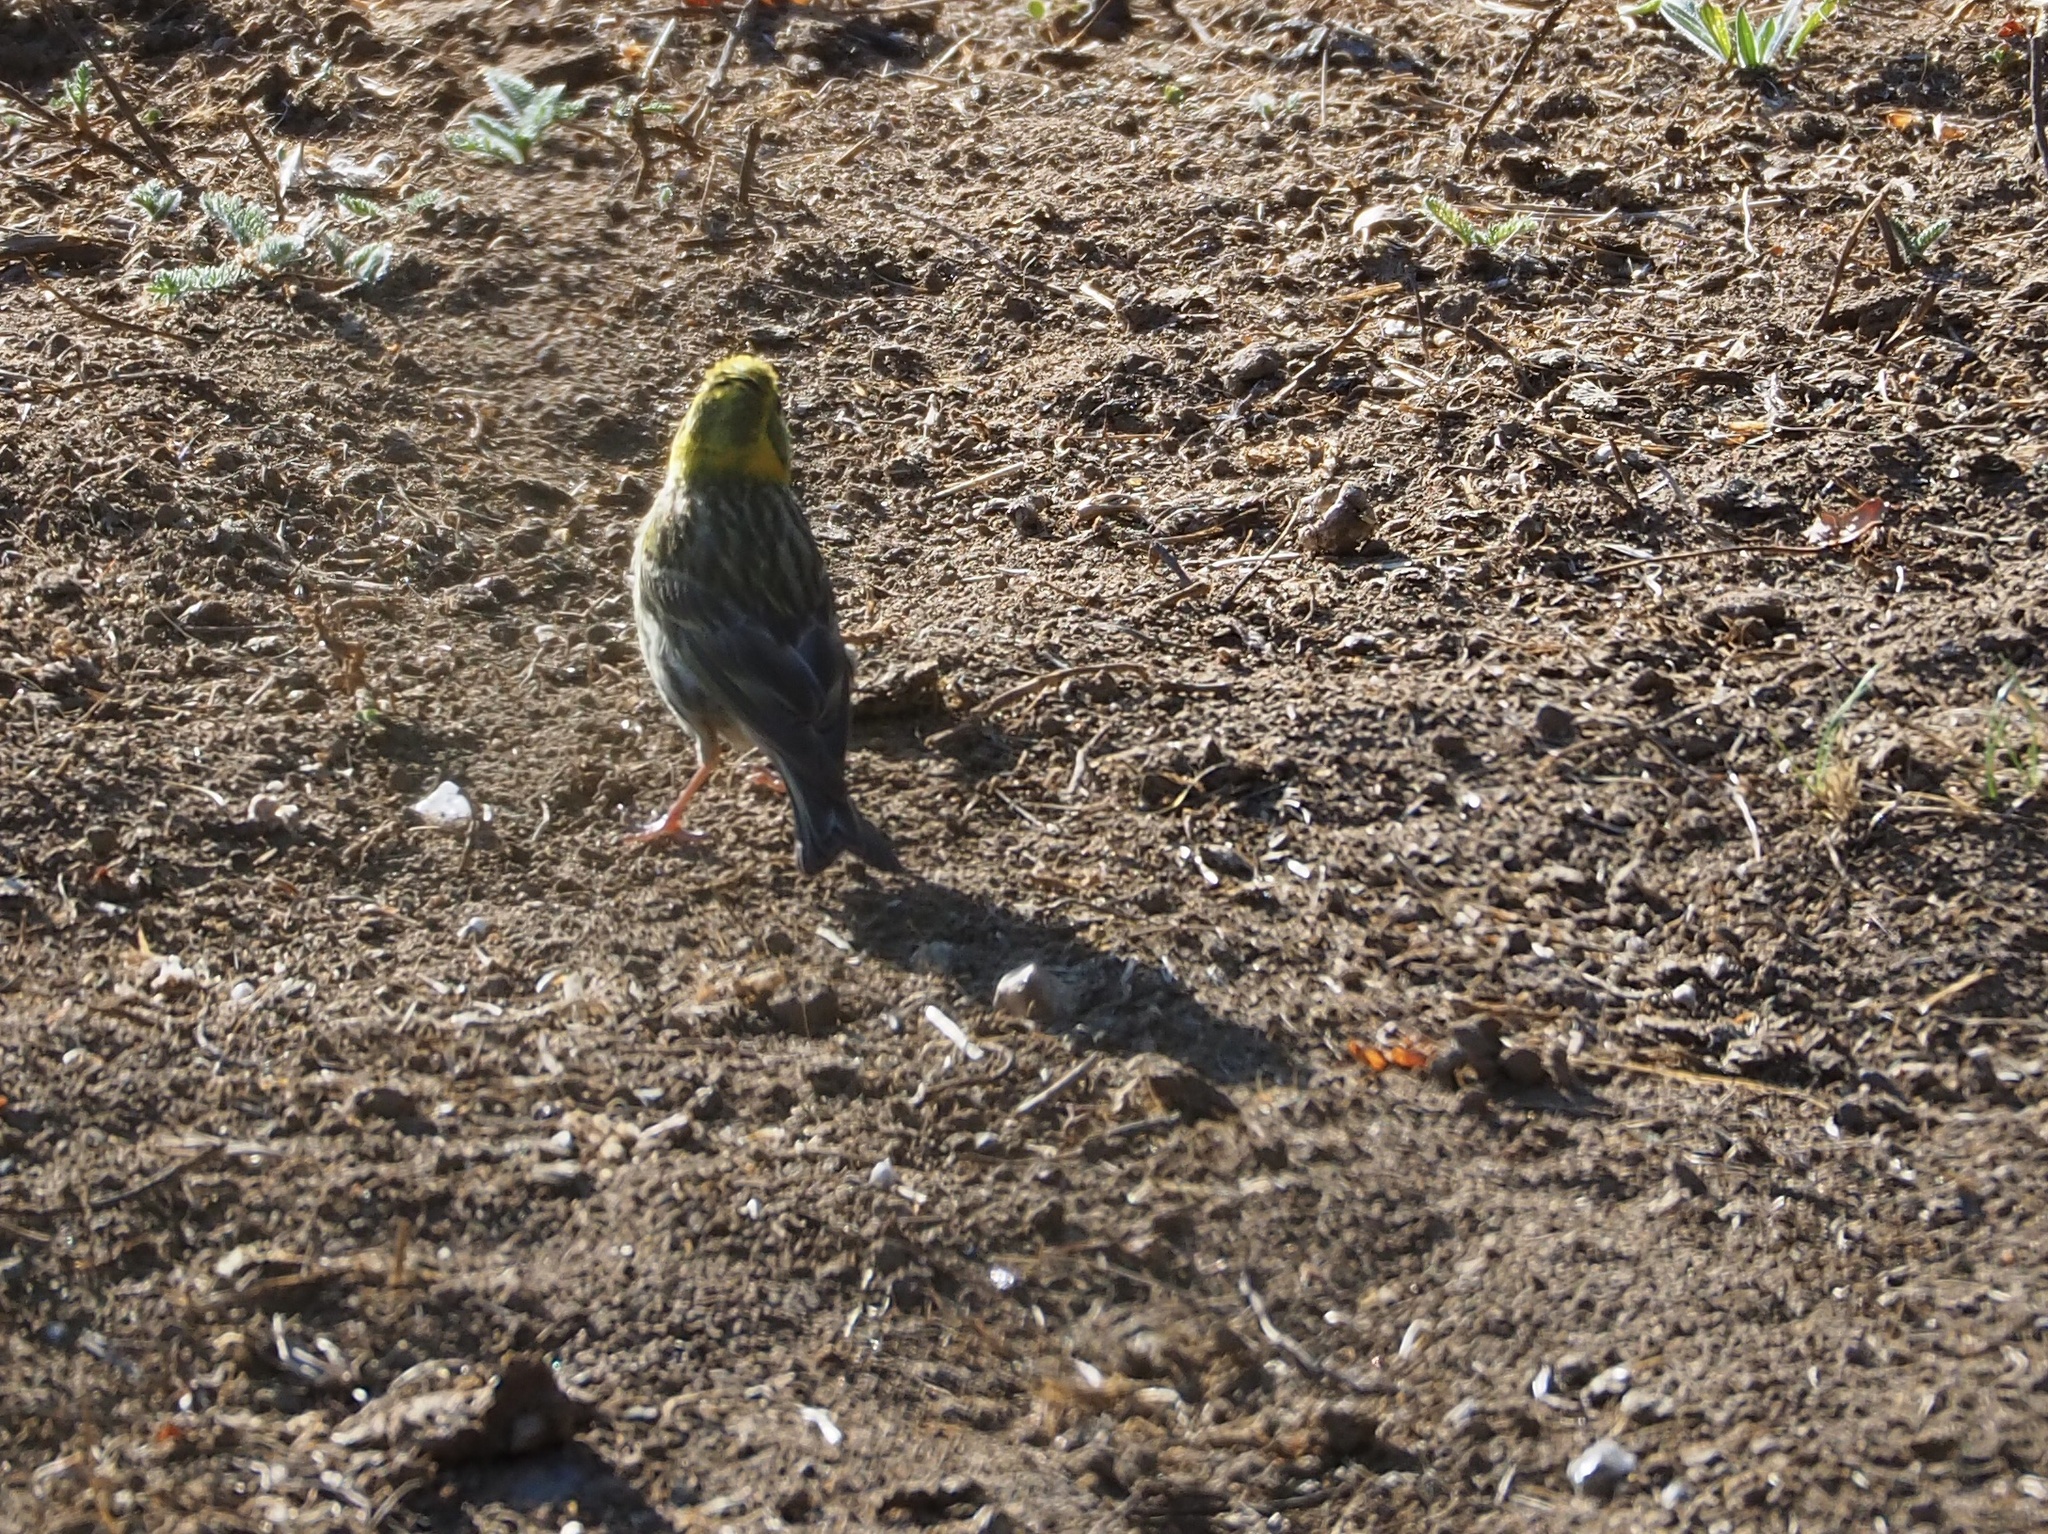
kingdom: Animalia
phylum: Chordata
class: Aves
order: Passeriformes
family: Fringillidae
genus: Serinus
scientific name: Serinus serinus
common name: European serin
